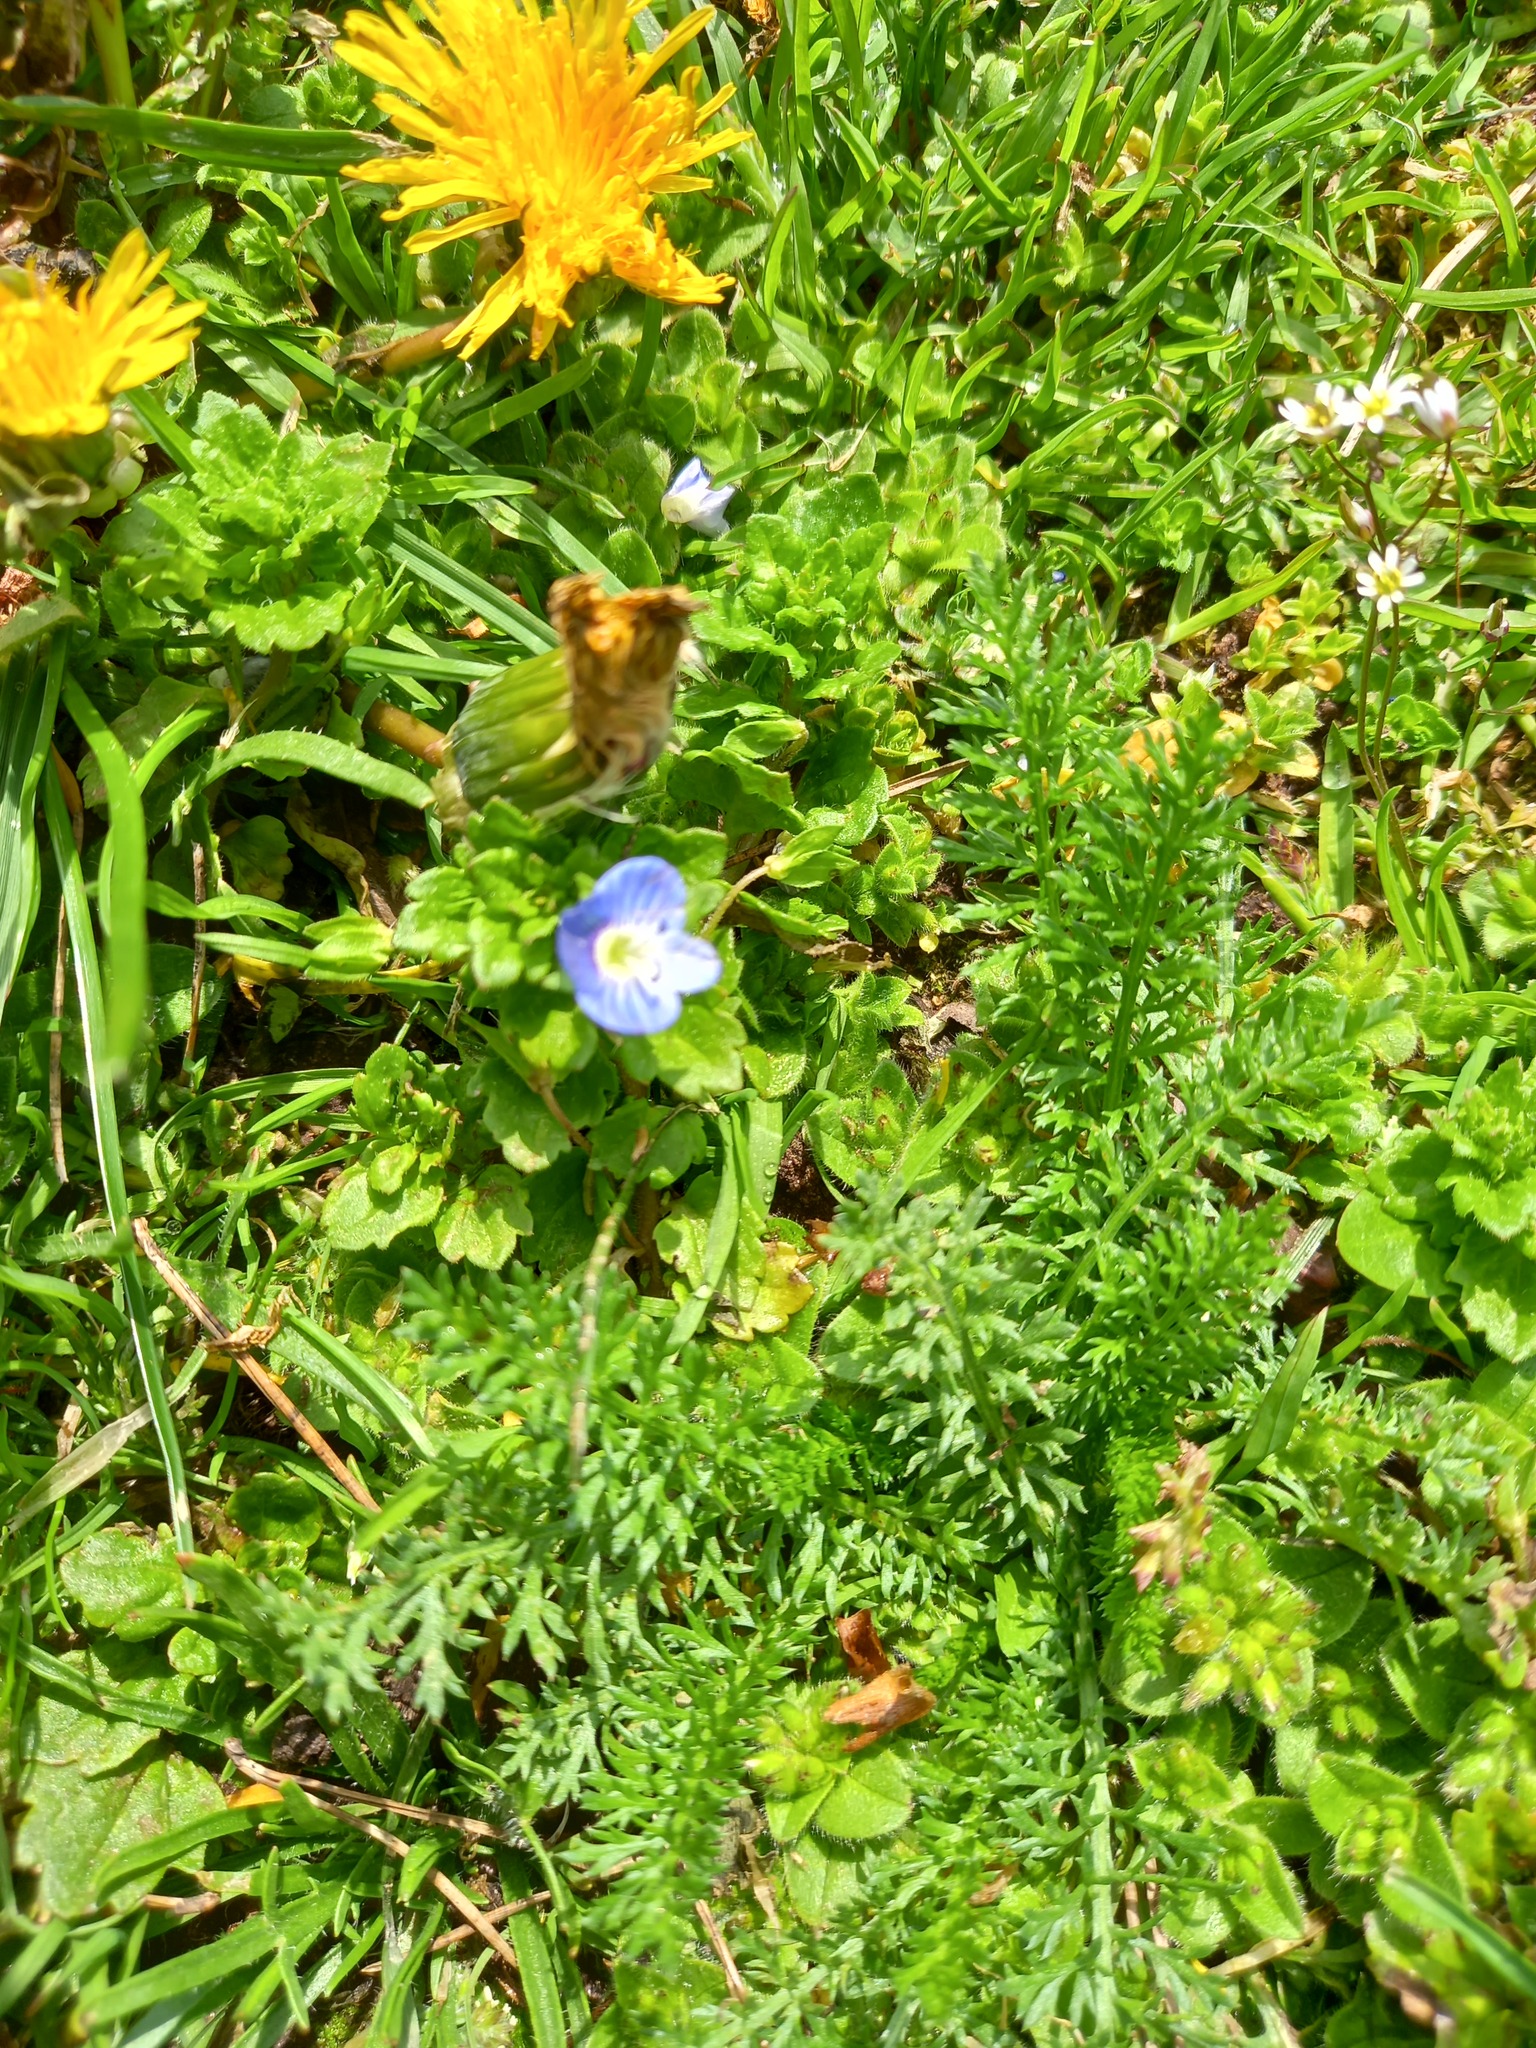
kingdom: Plantae
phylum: Tracheophyta
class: Magnoliopsida
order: Lamiales
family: Plantaginaceae
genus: Veronica
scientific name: Veronica persica
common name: Common field-speedwell
